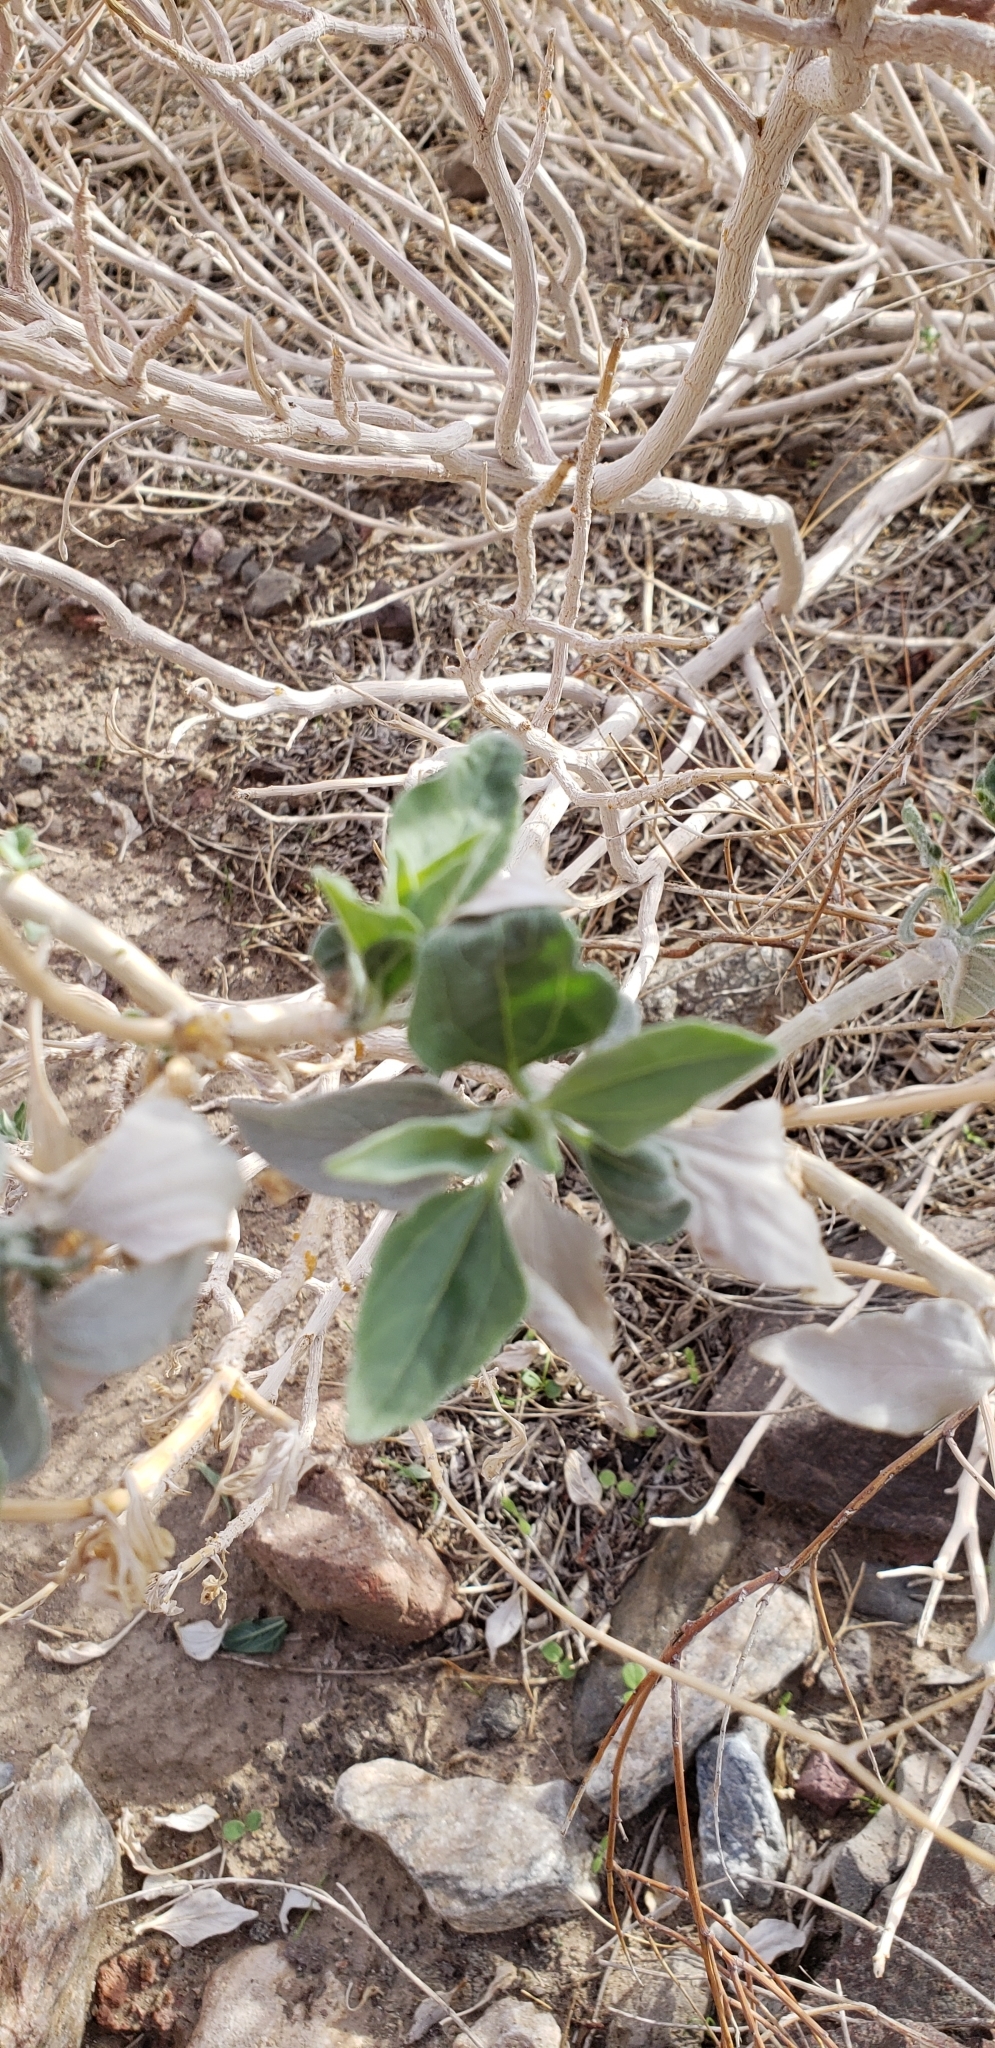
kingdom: Plantae
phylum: Tracheophyta
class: Magnoliopsida
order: Asterales
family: Asteraceae
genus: Encelia
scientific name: Encelia farinosa
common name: Brittlebush
